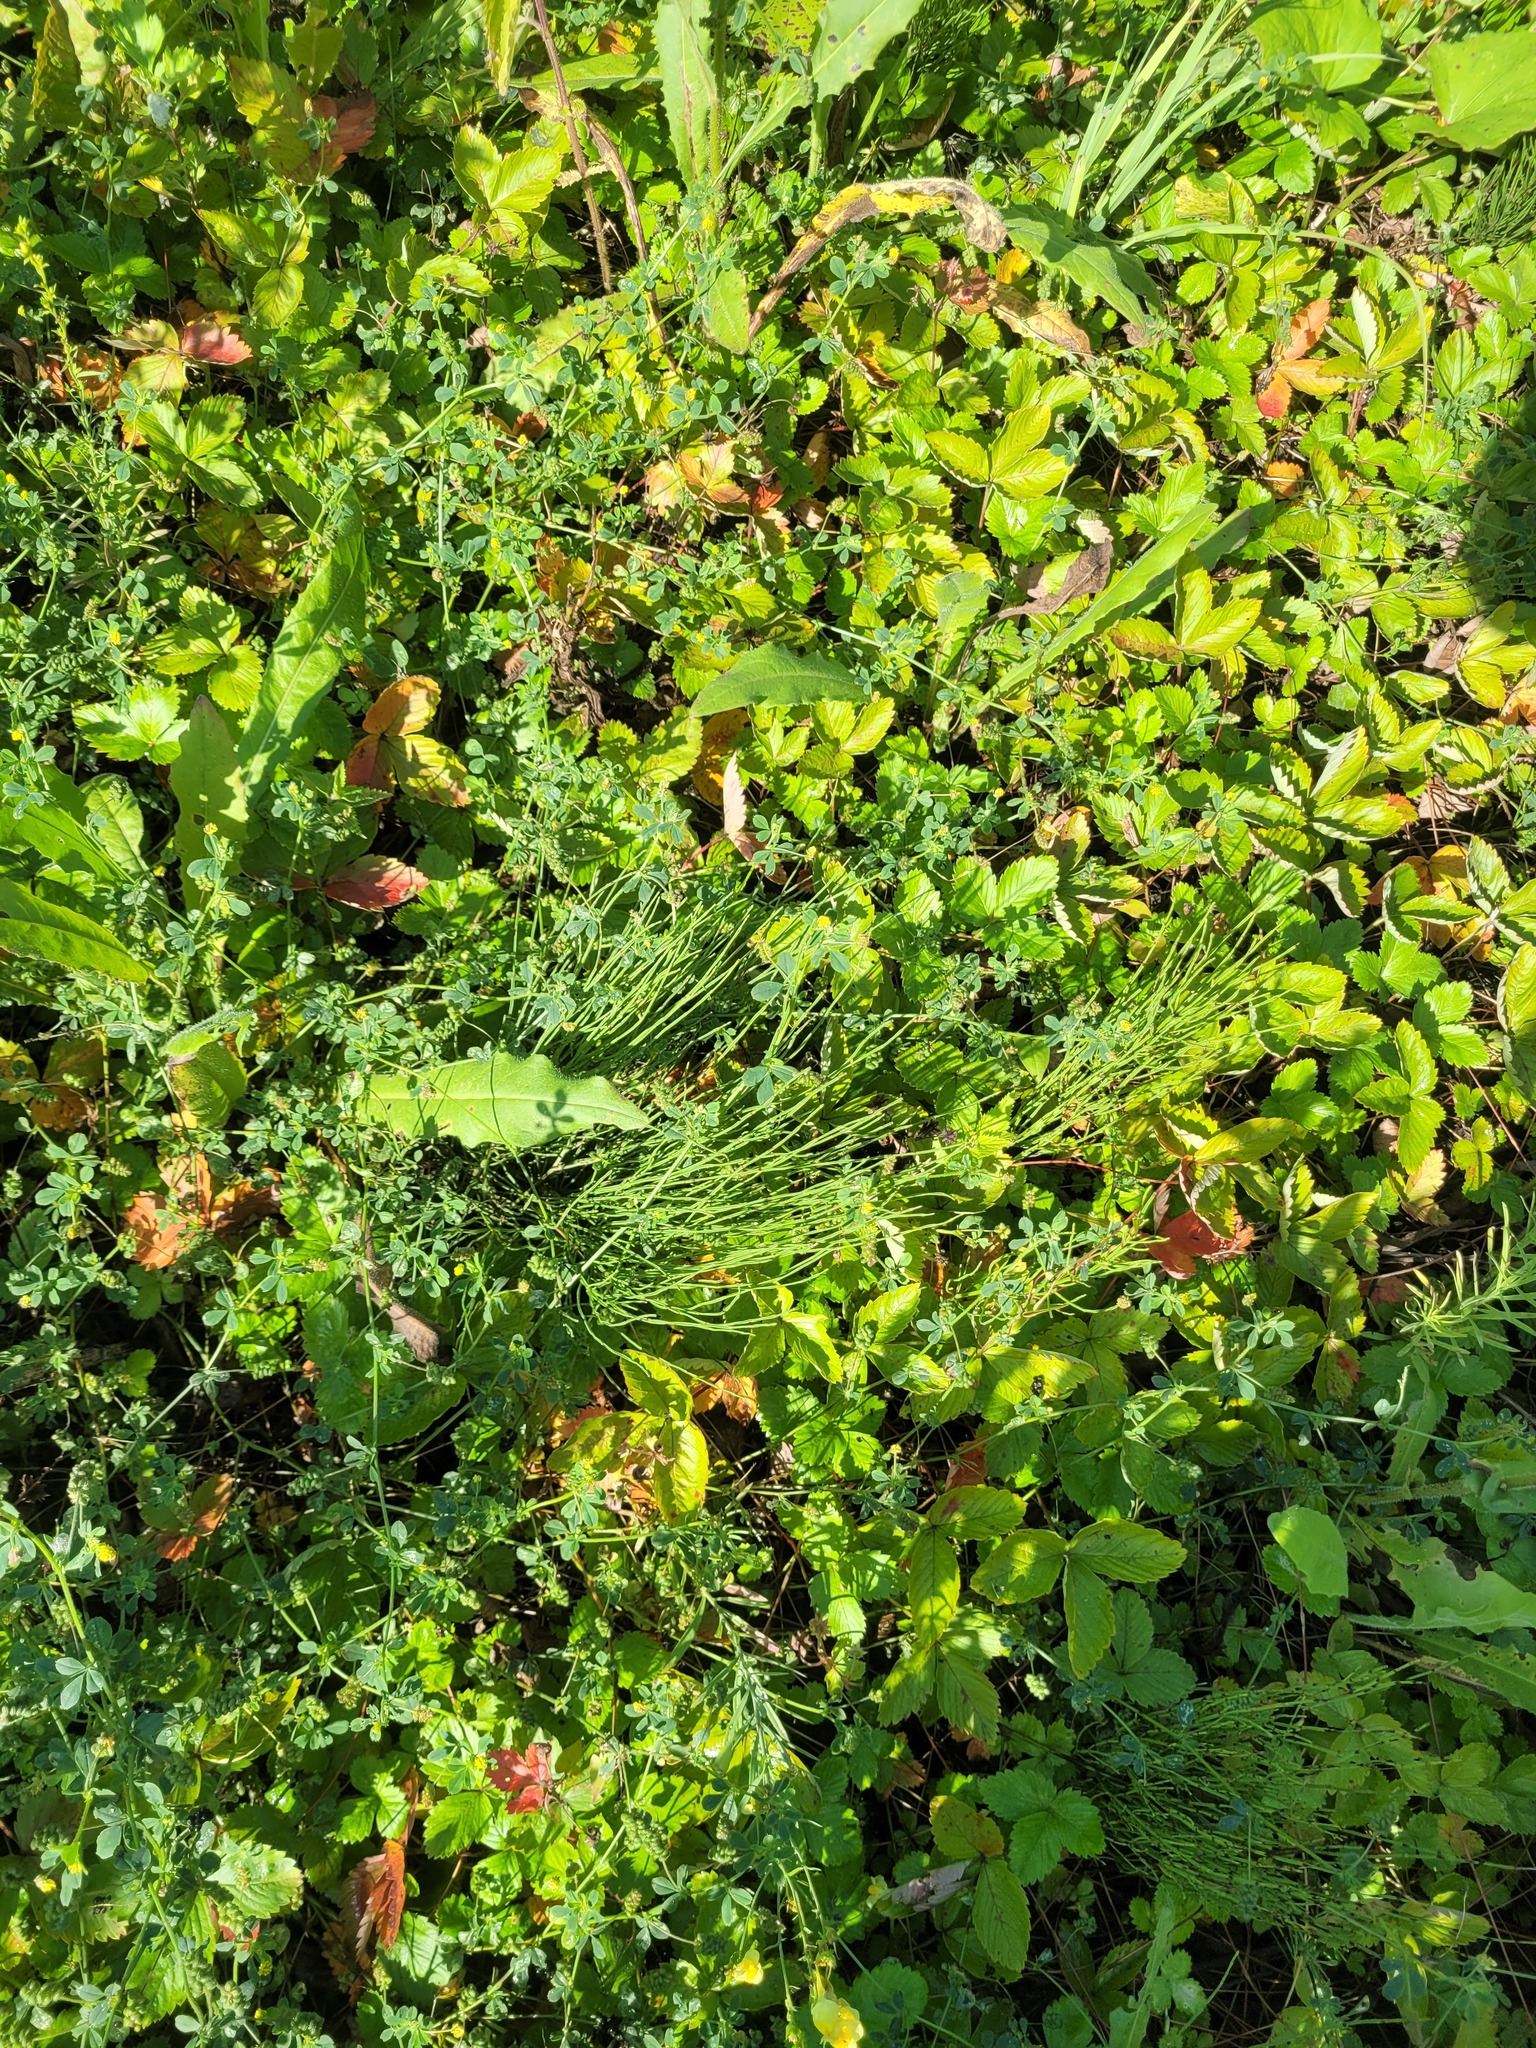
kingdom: Plantae
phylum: Tracheophyta
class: Polypodiopsida
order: Equisetales
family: Equisetaceae
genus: Equisetum
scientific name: Equisetum arvense
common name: Field horsetail
